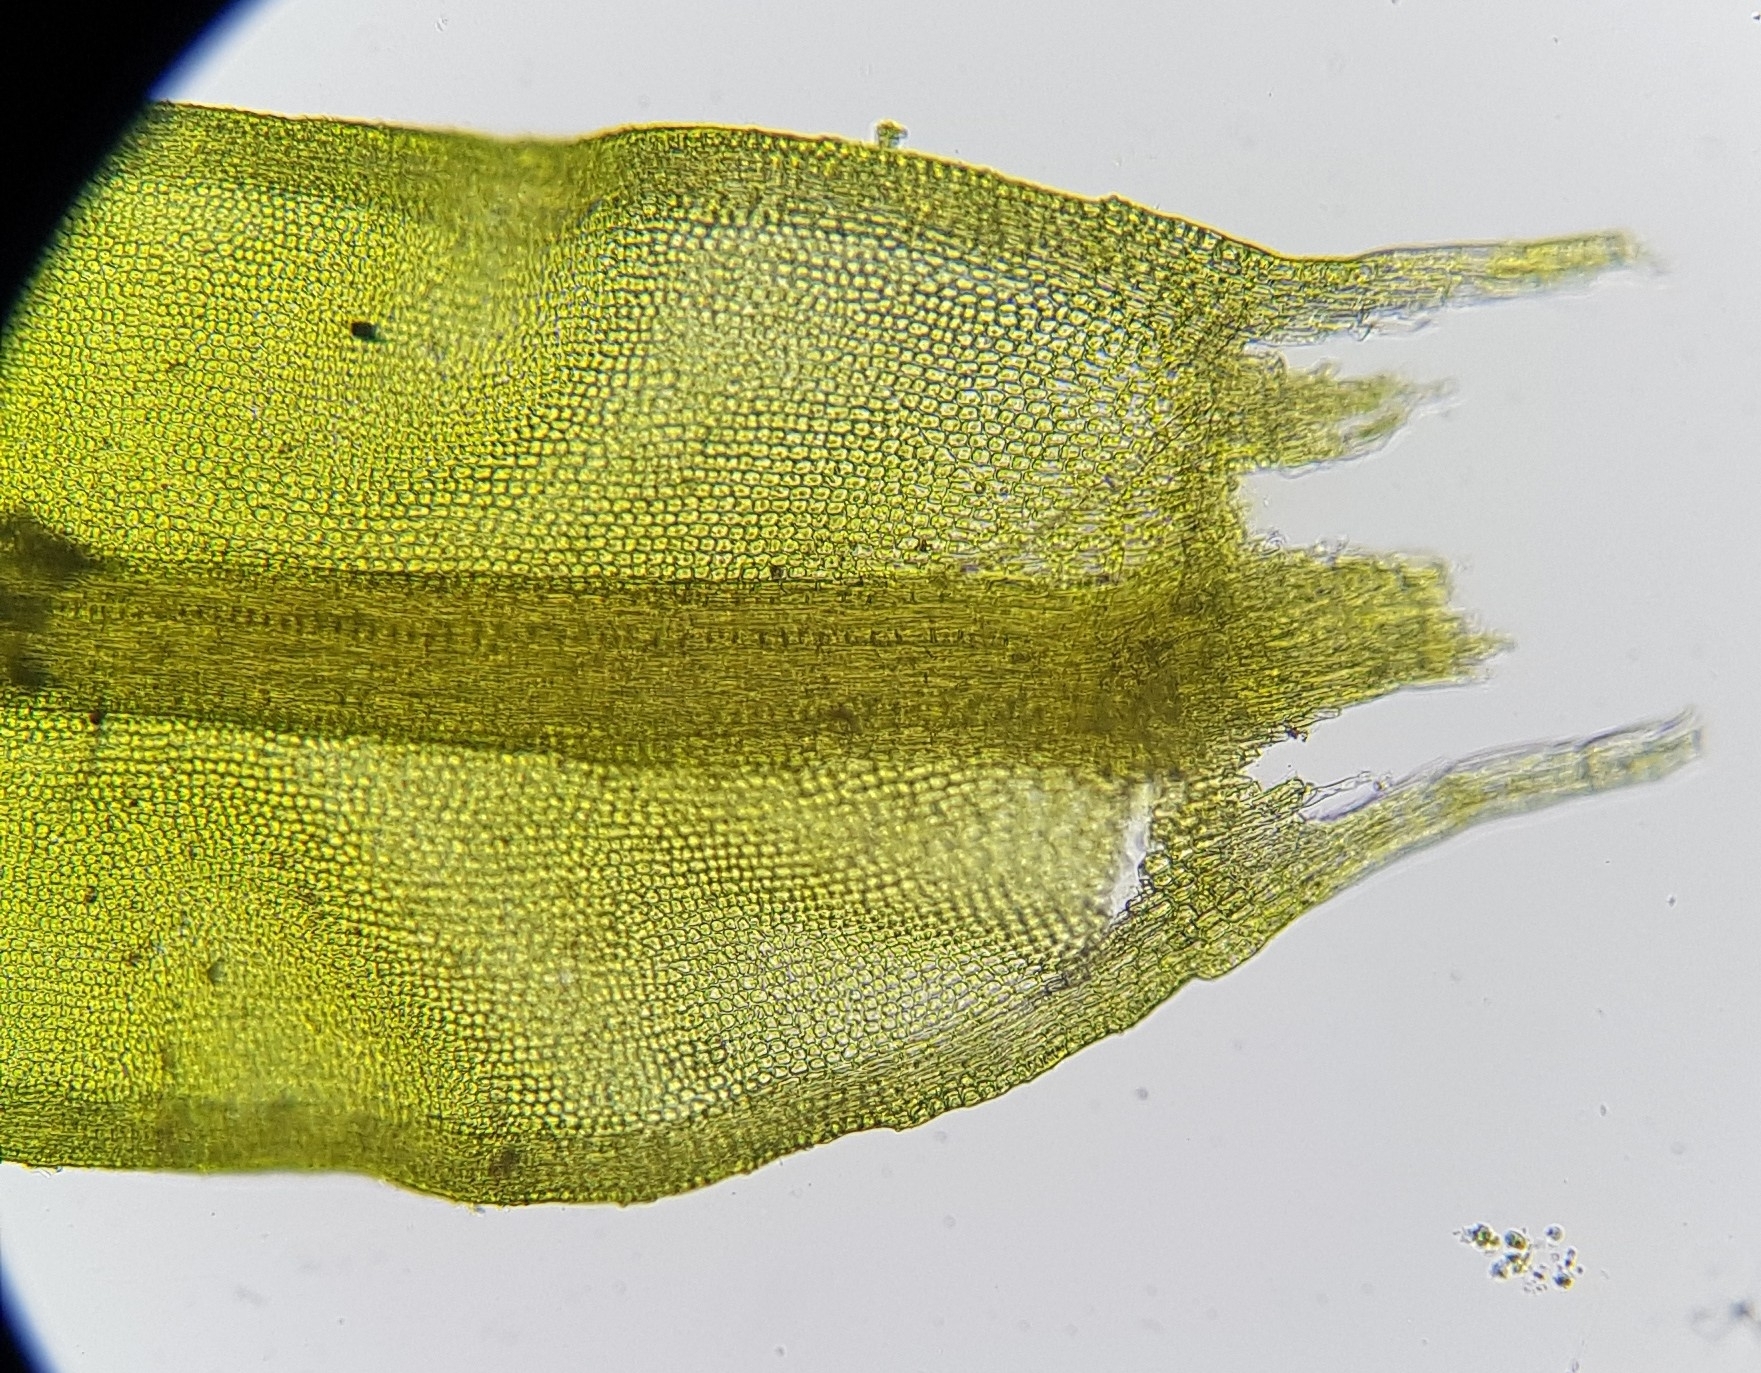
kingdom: Plantae
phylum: Bryophyta
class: Bryopsida
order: Pottiales
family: Pottiaceae
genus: Cinclidotus
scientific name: Cinclidotus fontinaloides
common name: Smaller lattice-moss
